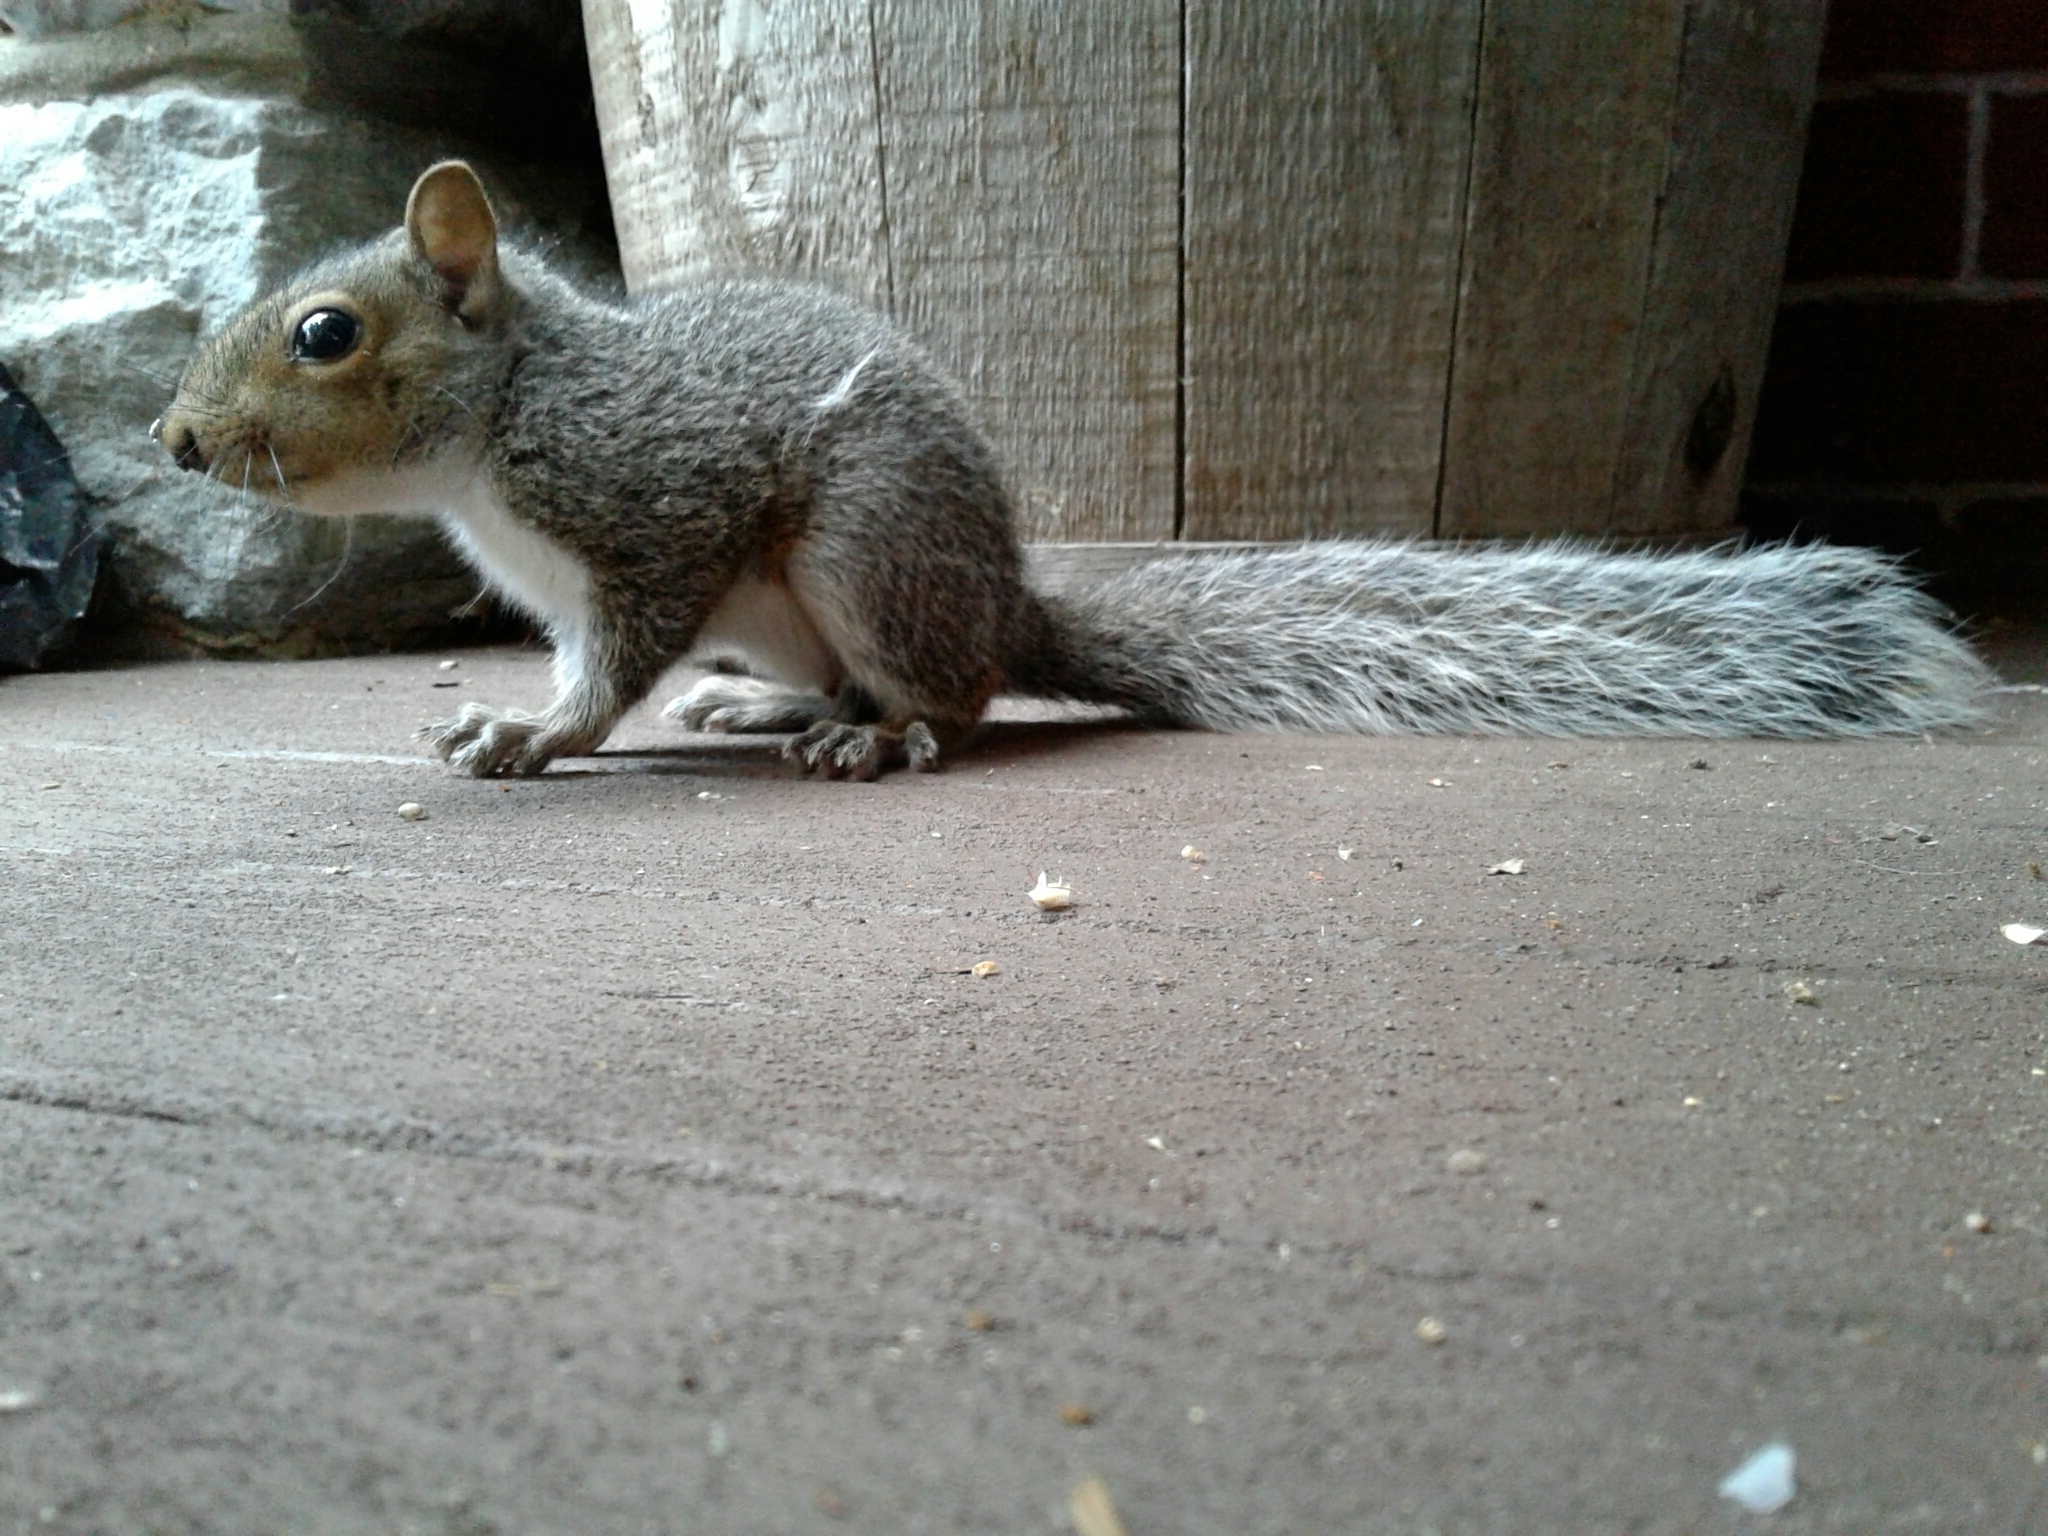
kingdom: Animalia
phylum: Chordata
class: Mammalia
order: Rodentia
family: Sciuridae
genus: Sciurus
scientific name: Sciurus carolinensis
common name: Eastern gray squirrel
